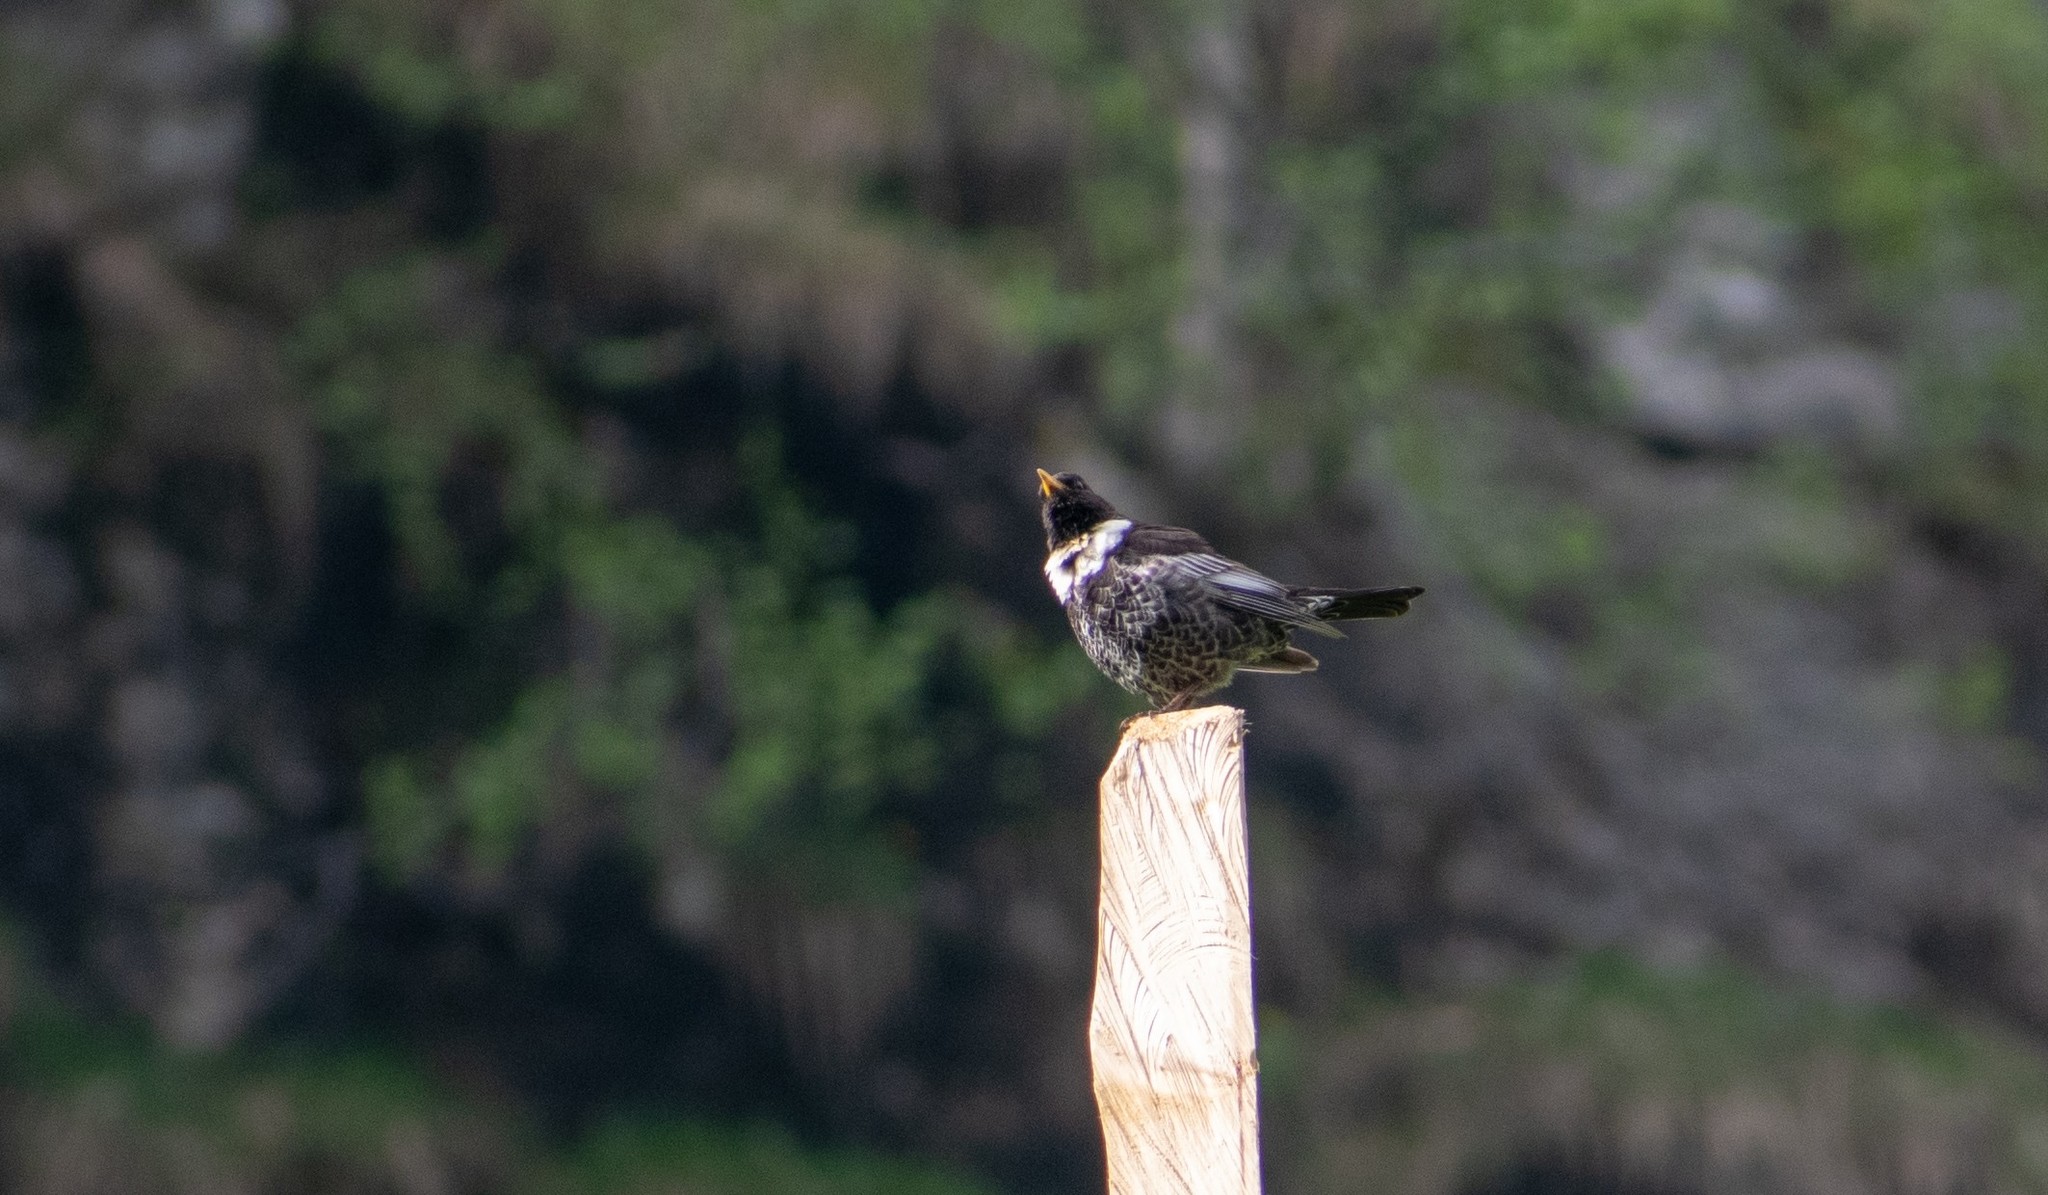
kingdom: Animalia
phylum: Chordata
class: Aves
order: Passeriformes
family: Turdidae
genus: Turdus
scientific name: Turdus torquatus
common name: Ring ouzel
